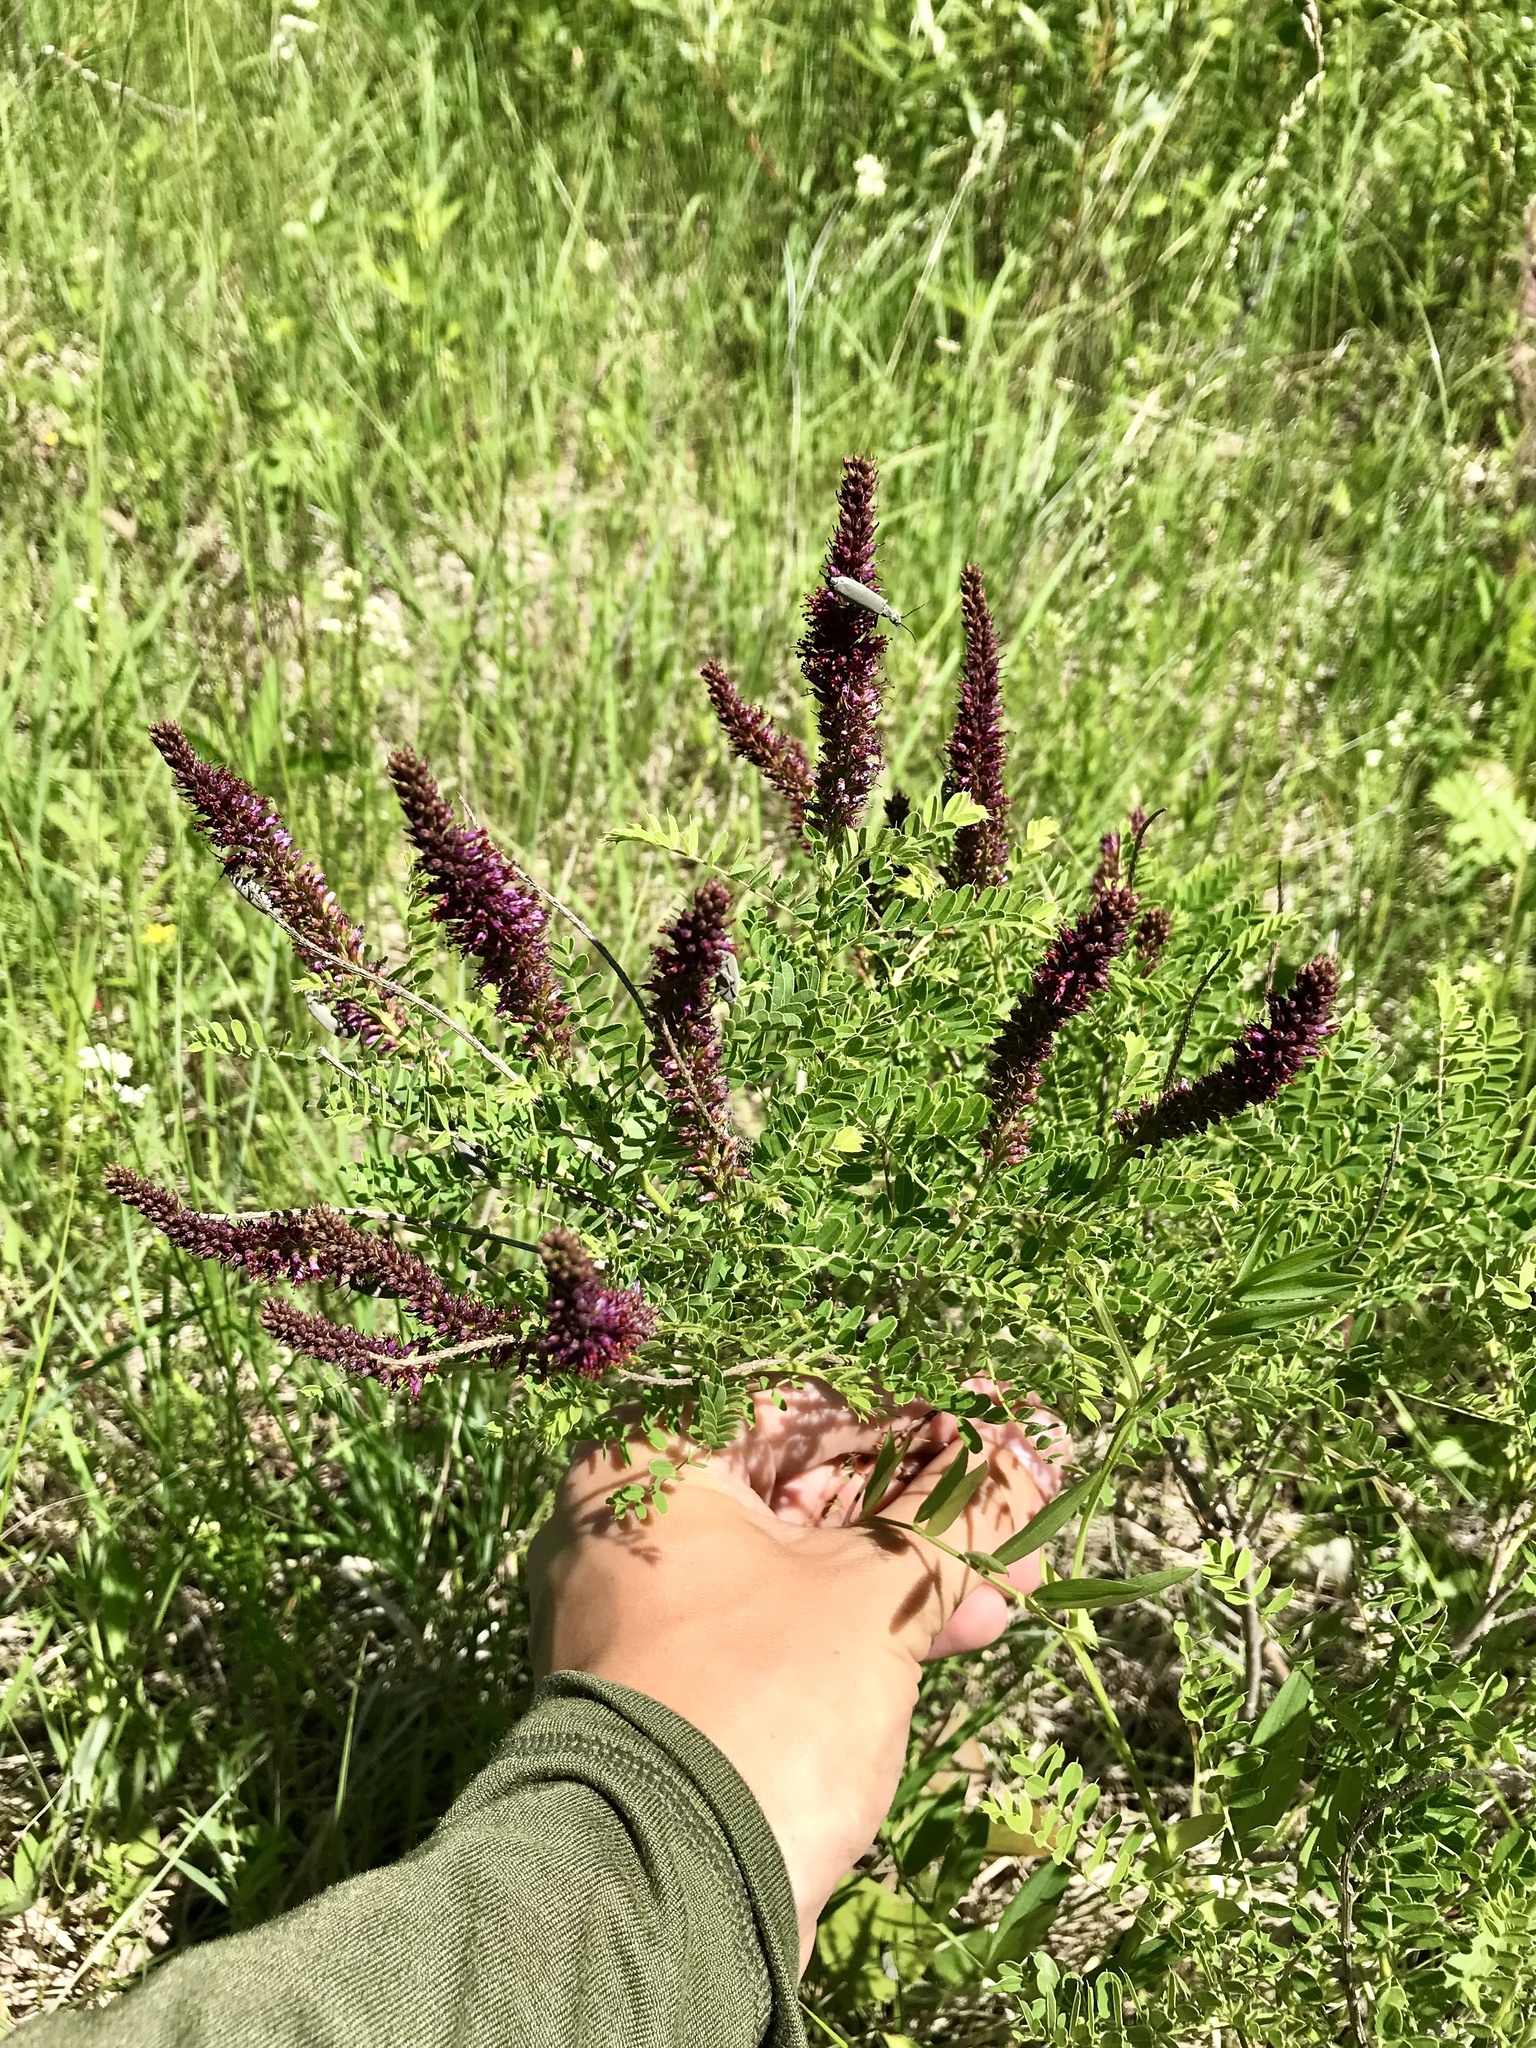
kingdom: Plantae
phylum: Tracheophyta
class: Magnoliopsida
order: Fabales
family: Fabaceae
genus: Amorpha
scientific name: Amorpha nana
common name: Fragrant false indigo
